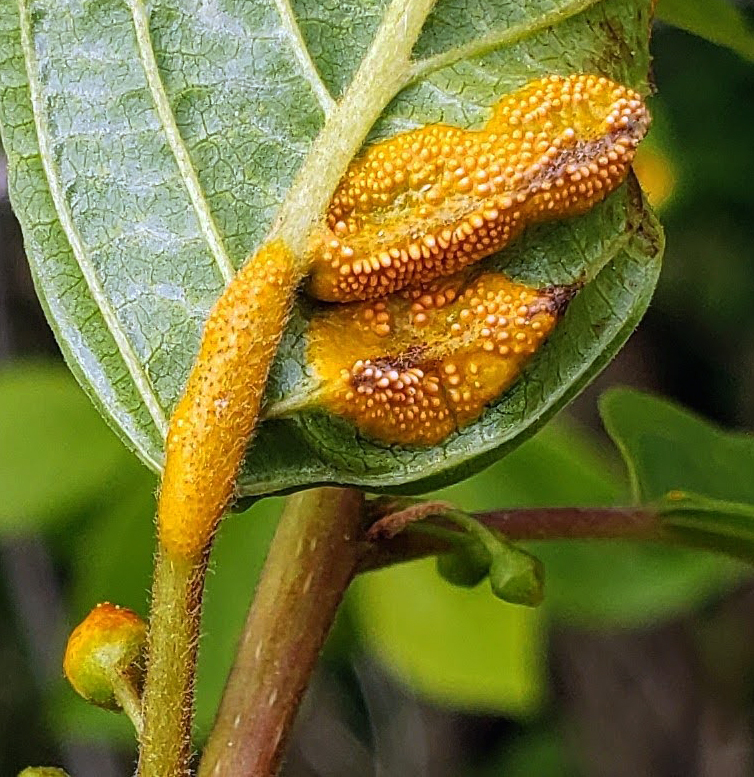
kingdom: Fungi
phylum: Basidiomycota
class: Pucciniomycetes
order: Pucciniales
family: Pucciniaceae
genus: Puccinia
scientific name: Puccinia coronata
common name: Crown rust
